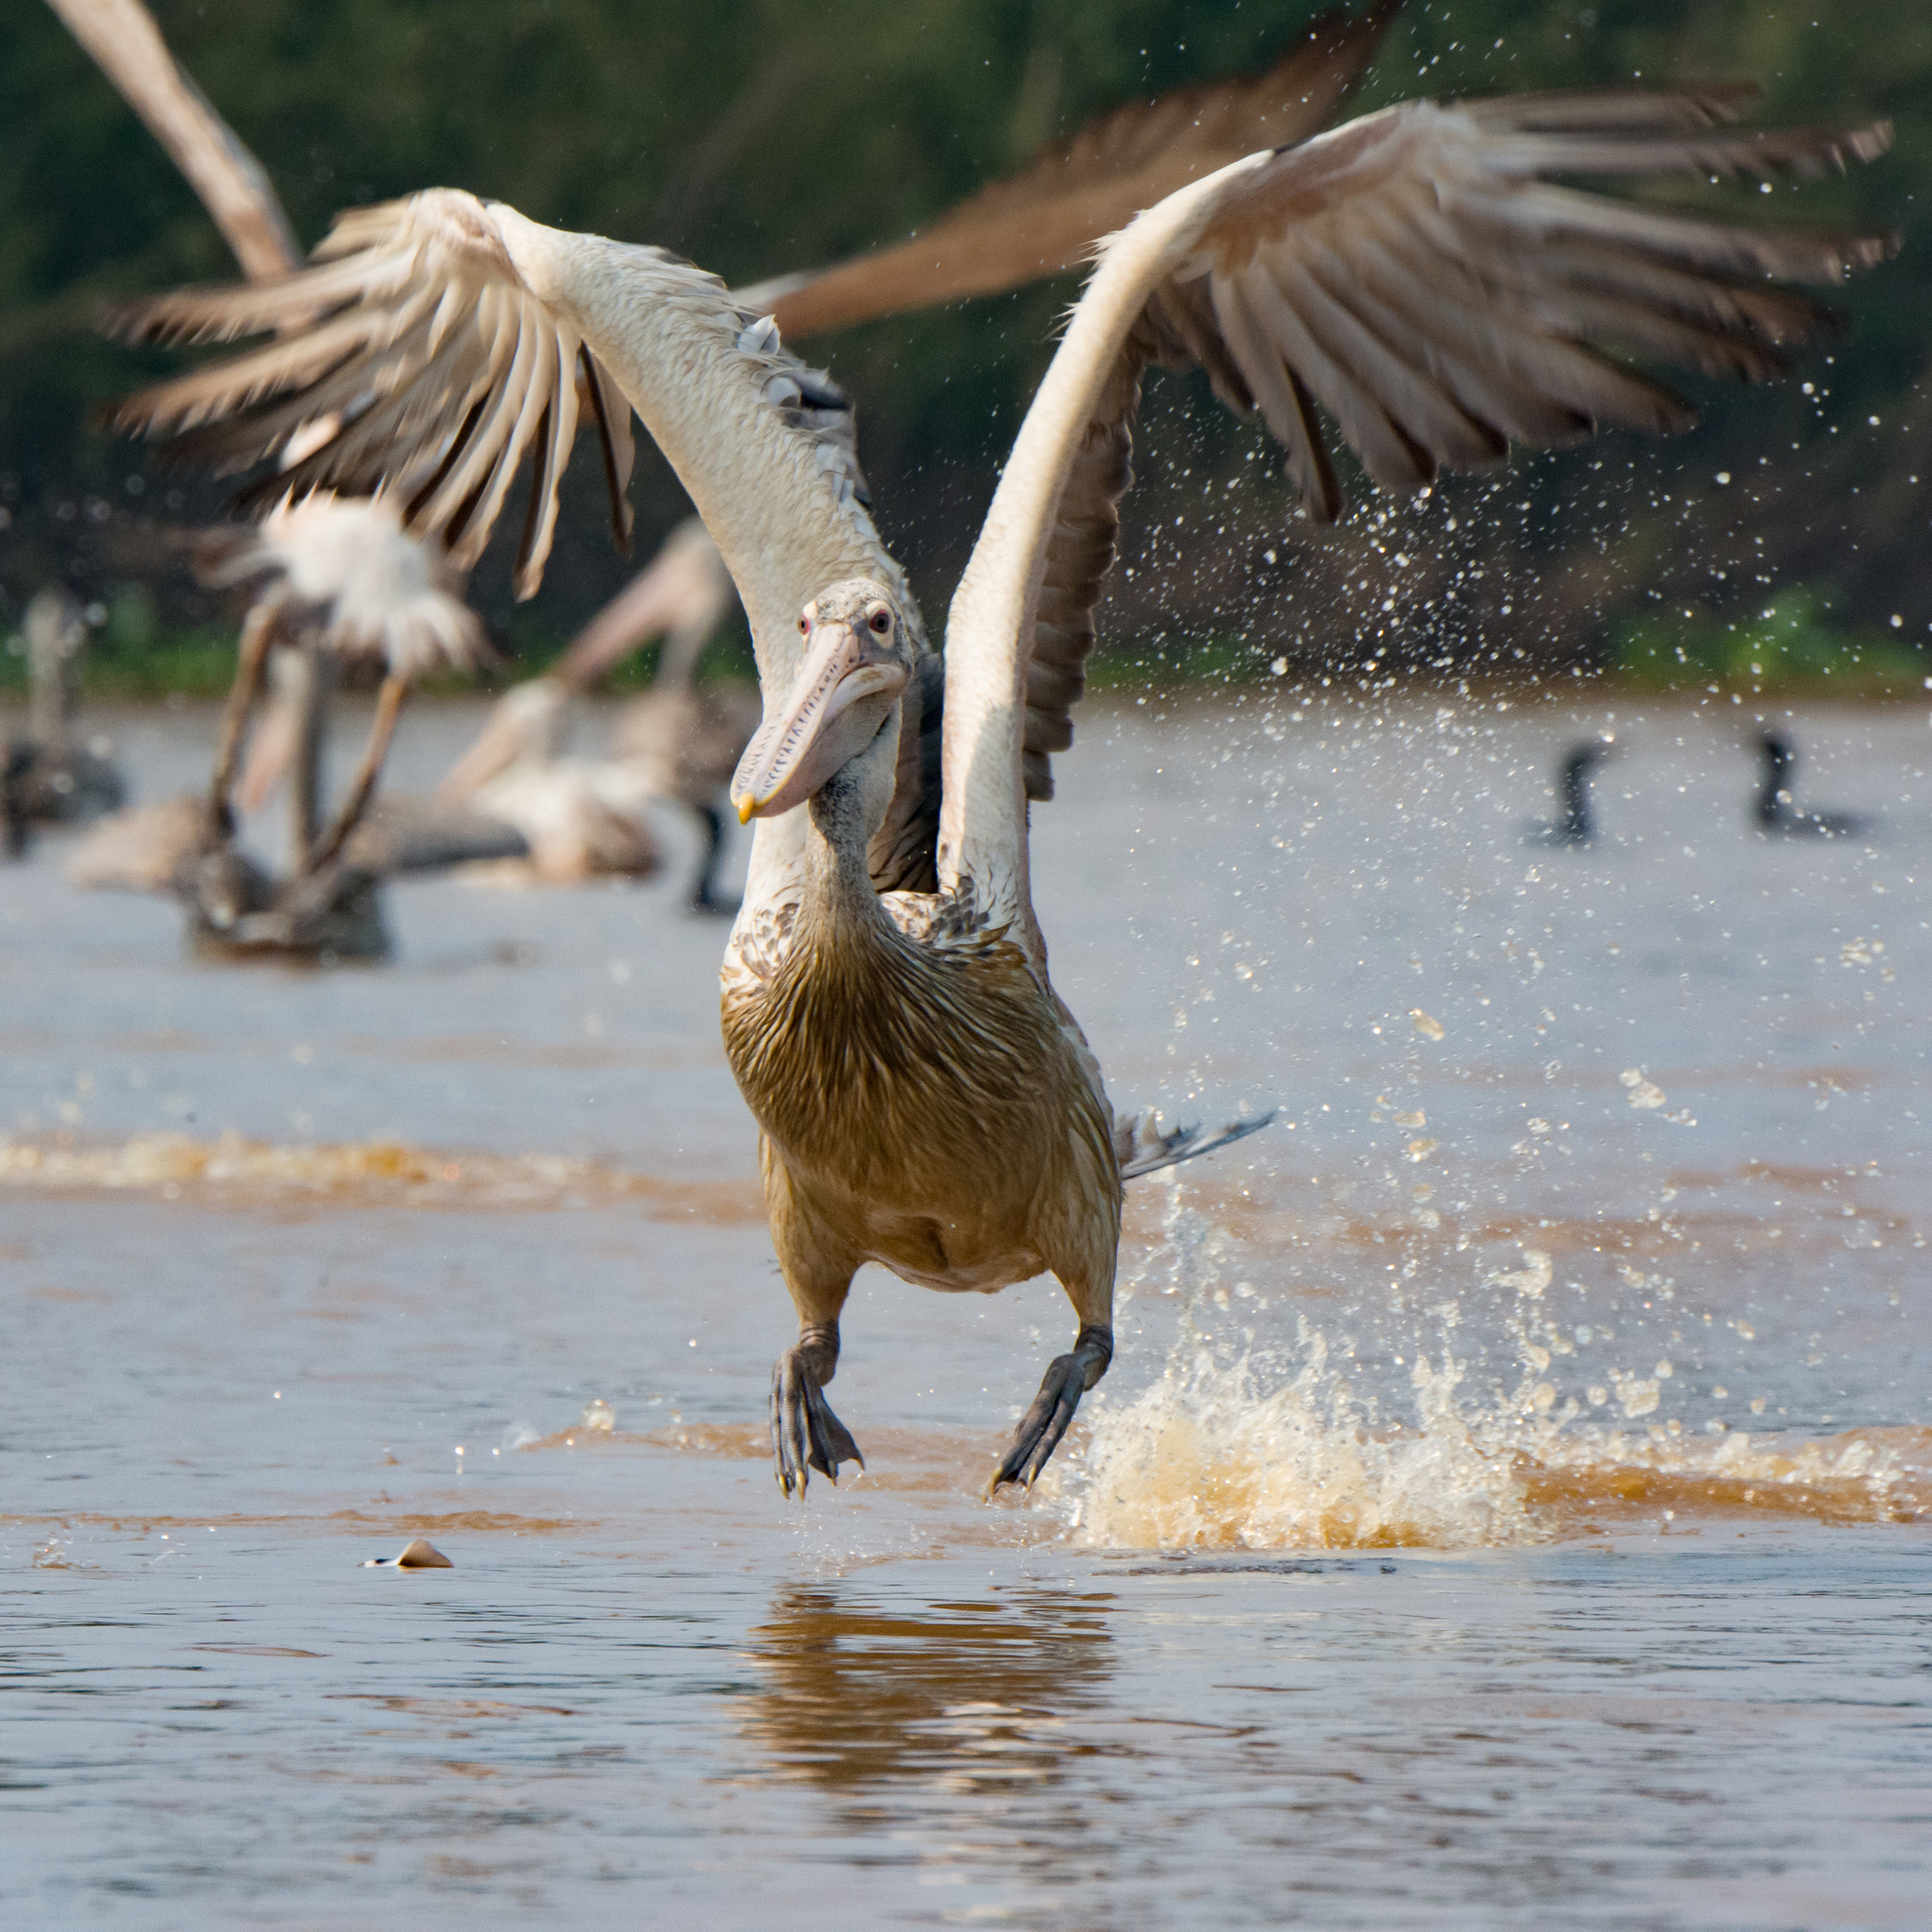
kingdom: Animalia
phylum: Chordata
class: Aves
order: Pelecaniformes
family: Pelecanidae
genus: Pelecanus
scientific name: Pelecanus philippensis
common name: Spot-billed pelican
